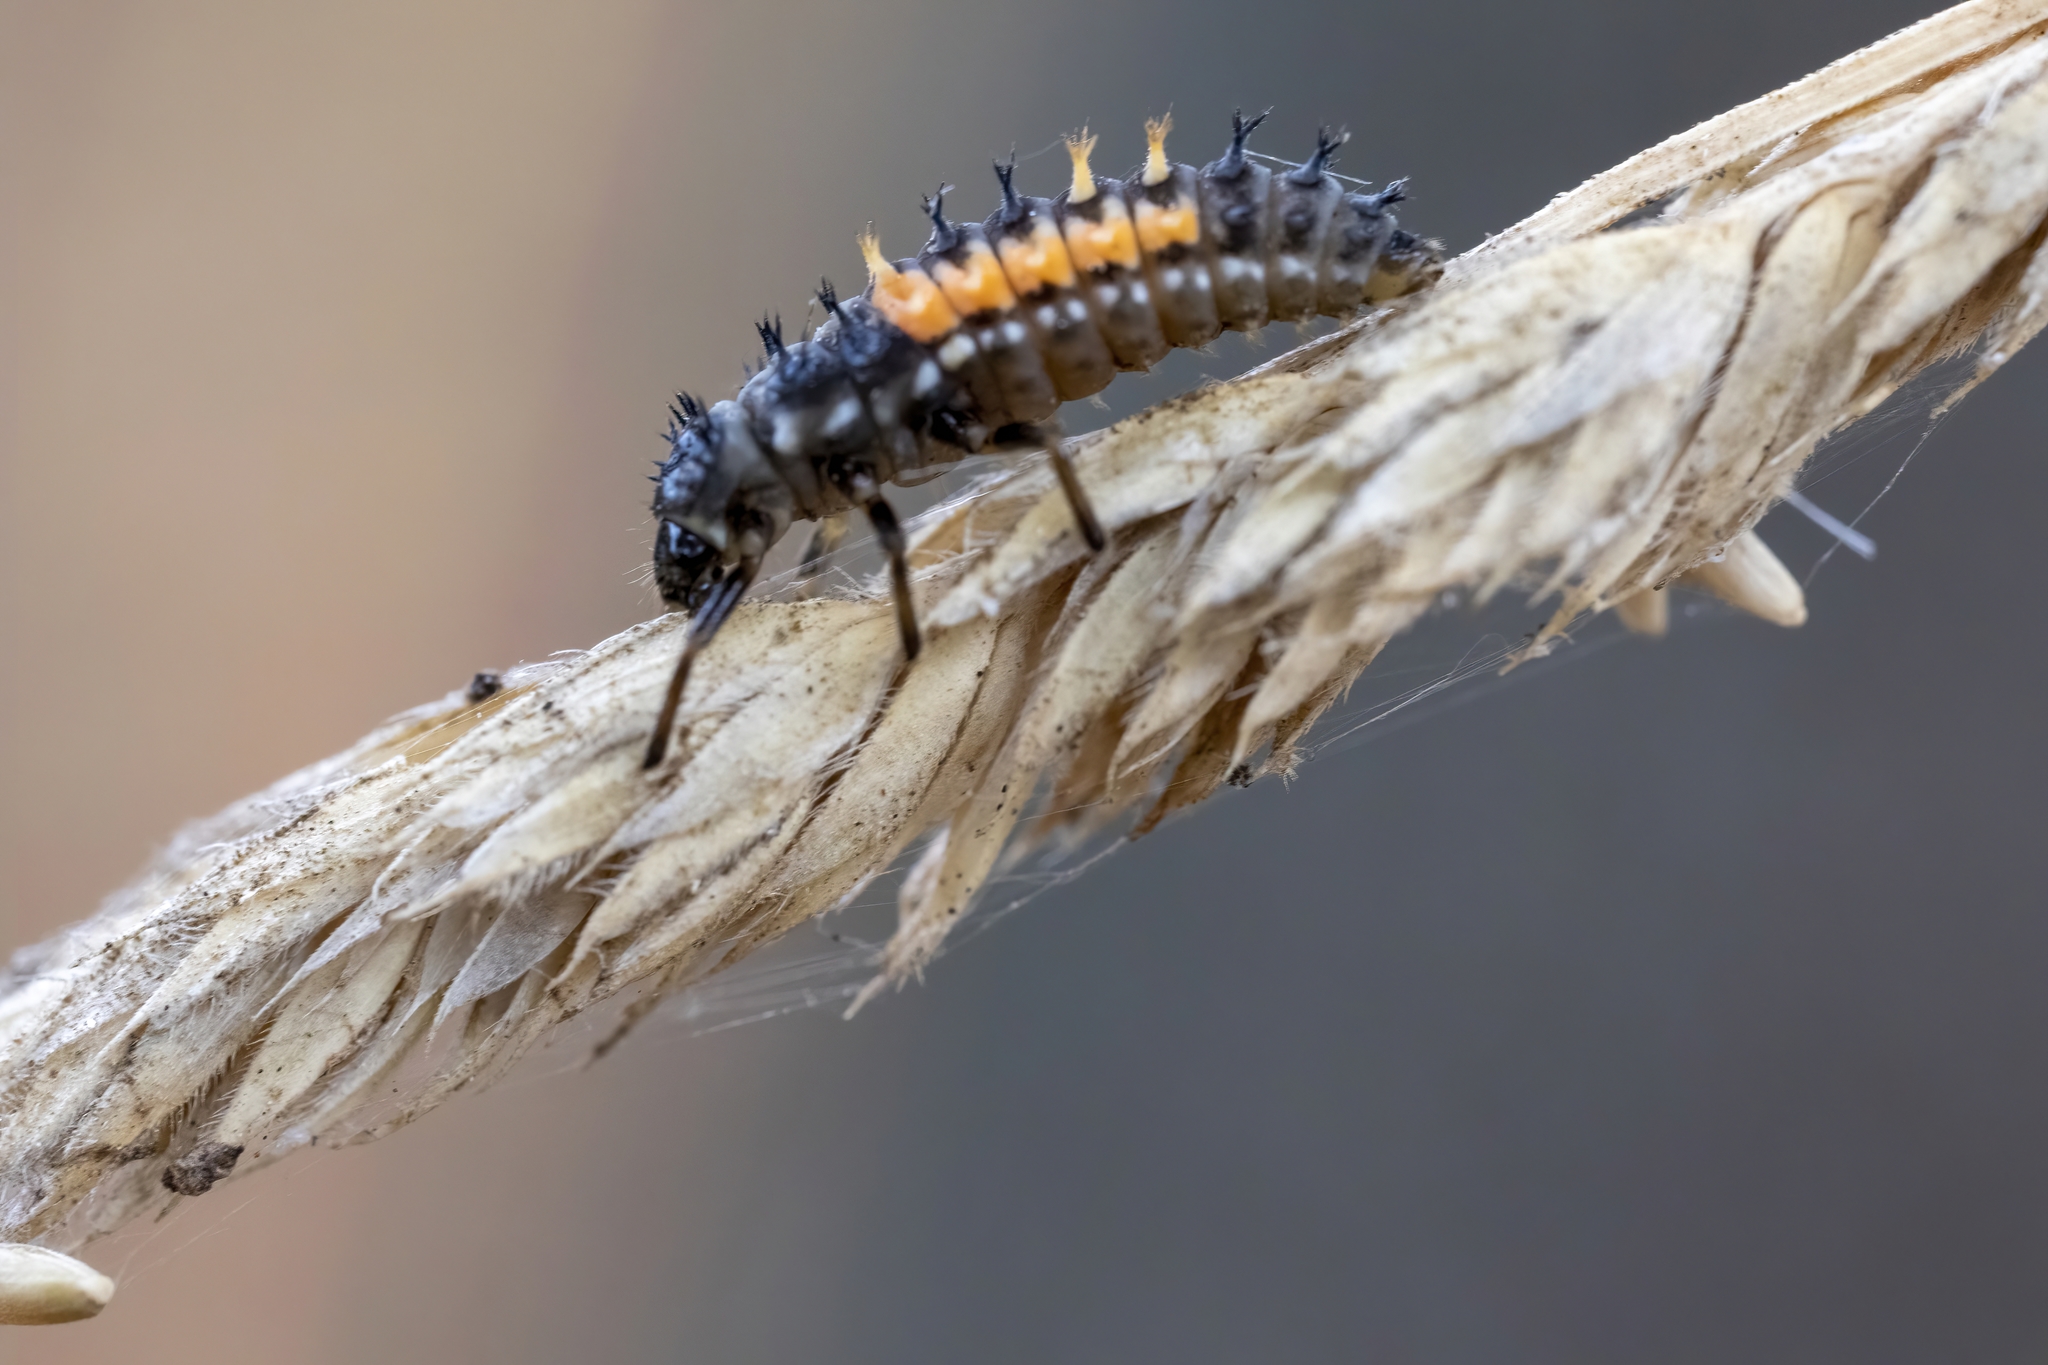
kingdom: Animalia
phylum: Arthropoda
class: Insecta
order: Coleoptera
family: Coccinellidae
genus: Harmonia
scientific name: Harmonia axyridis
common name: Harlequin ladybird
